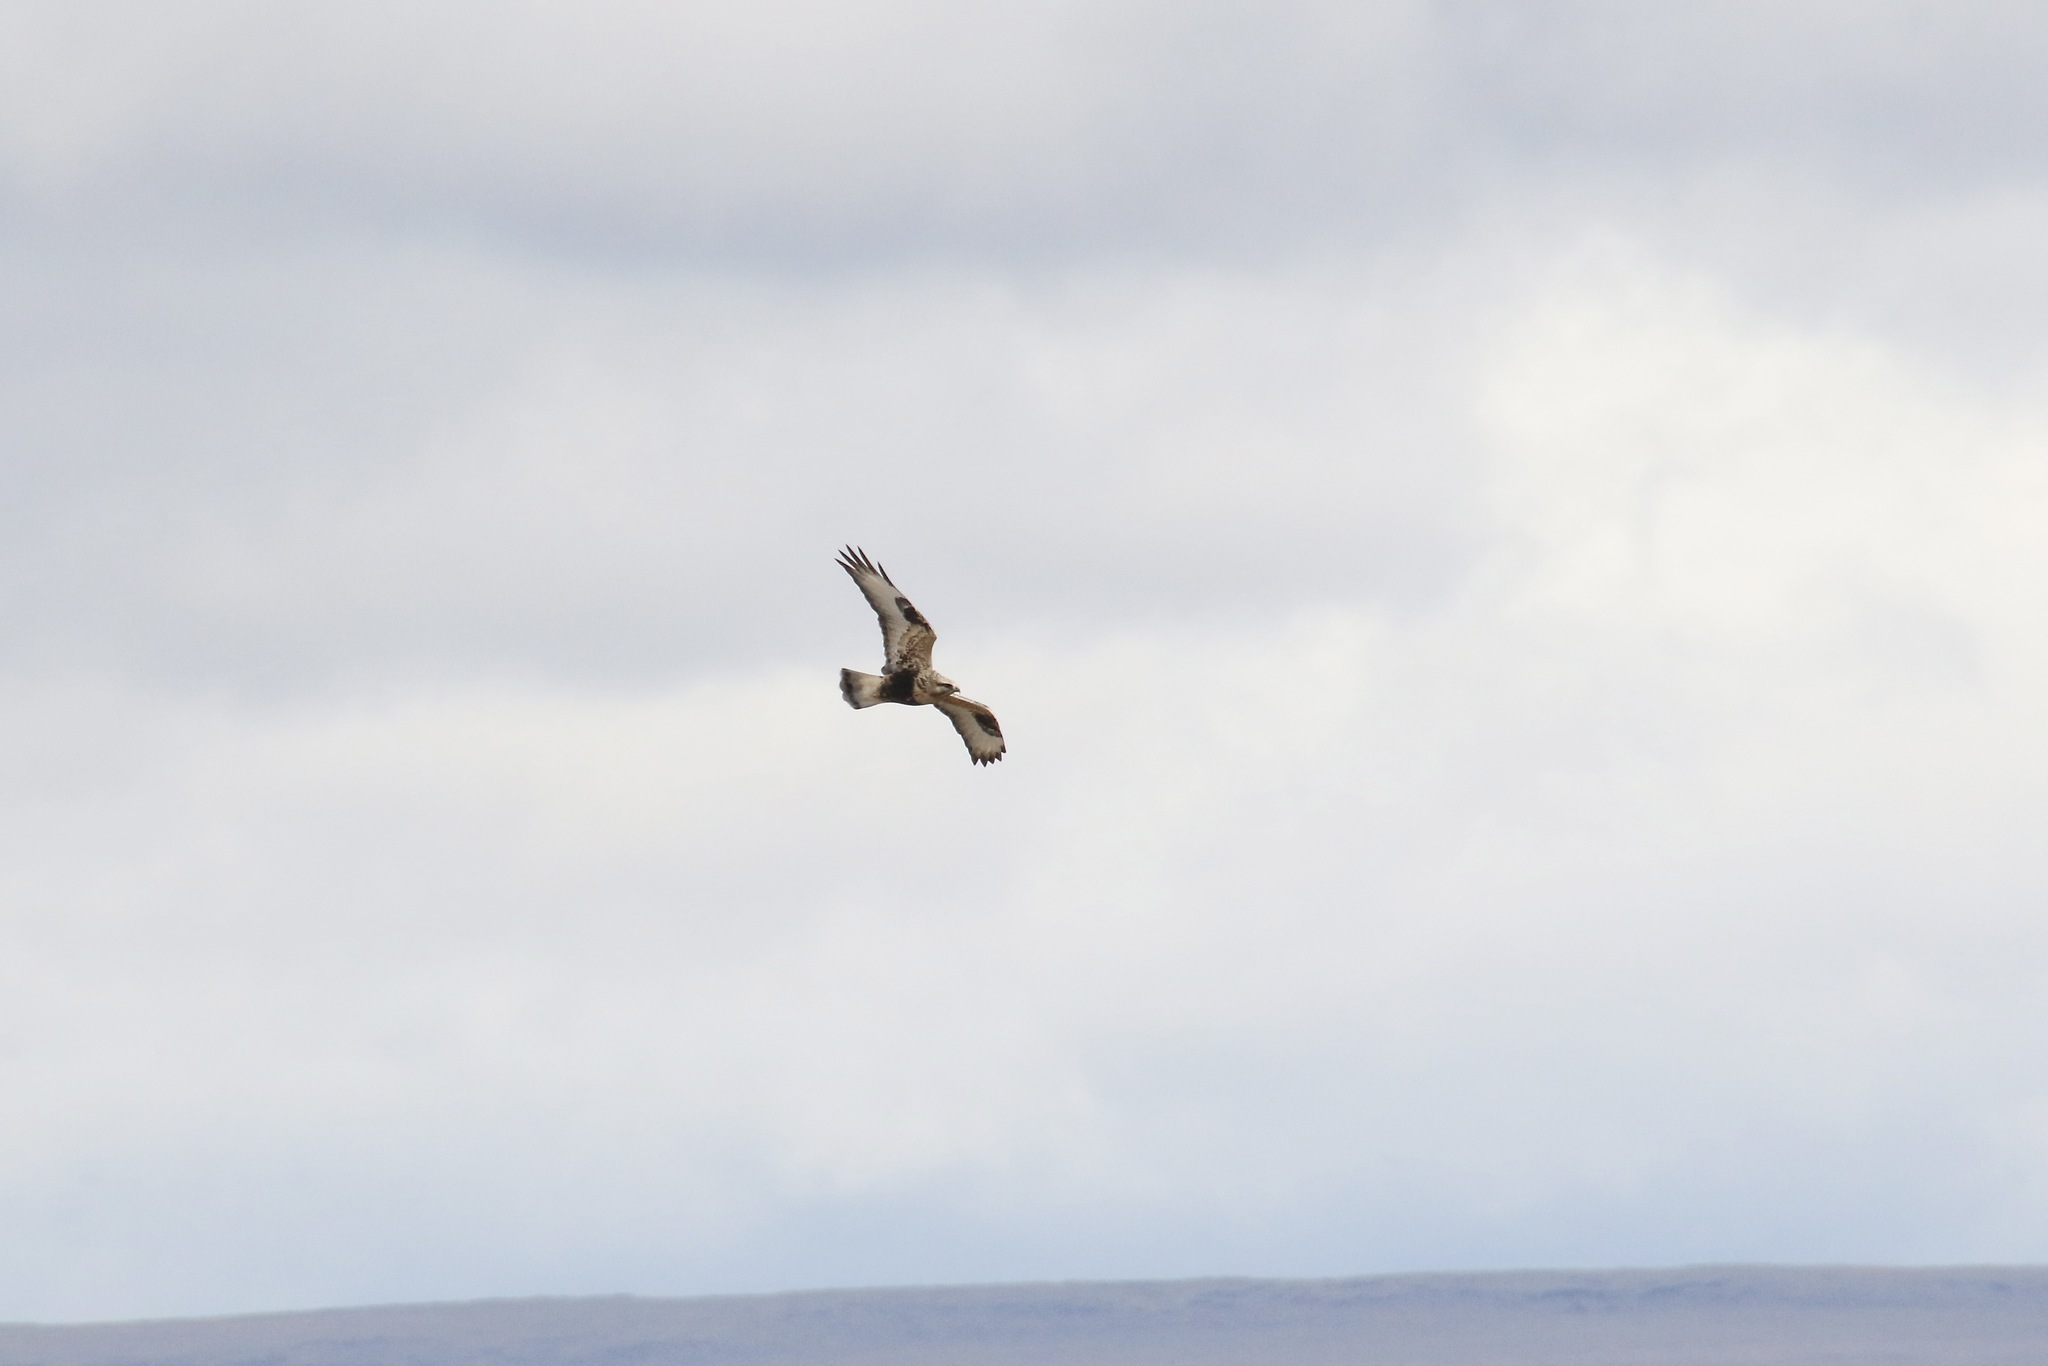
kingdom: Animalia
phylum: Chordata
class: Aves
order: Accipitriformes
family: Accipitridae
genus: Buteo
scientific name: Buteo lagopus
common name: Rough-legged buzzard
